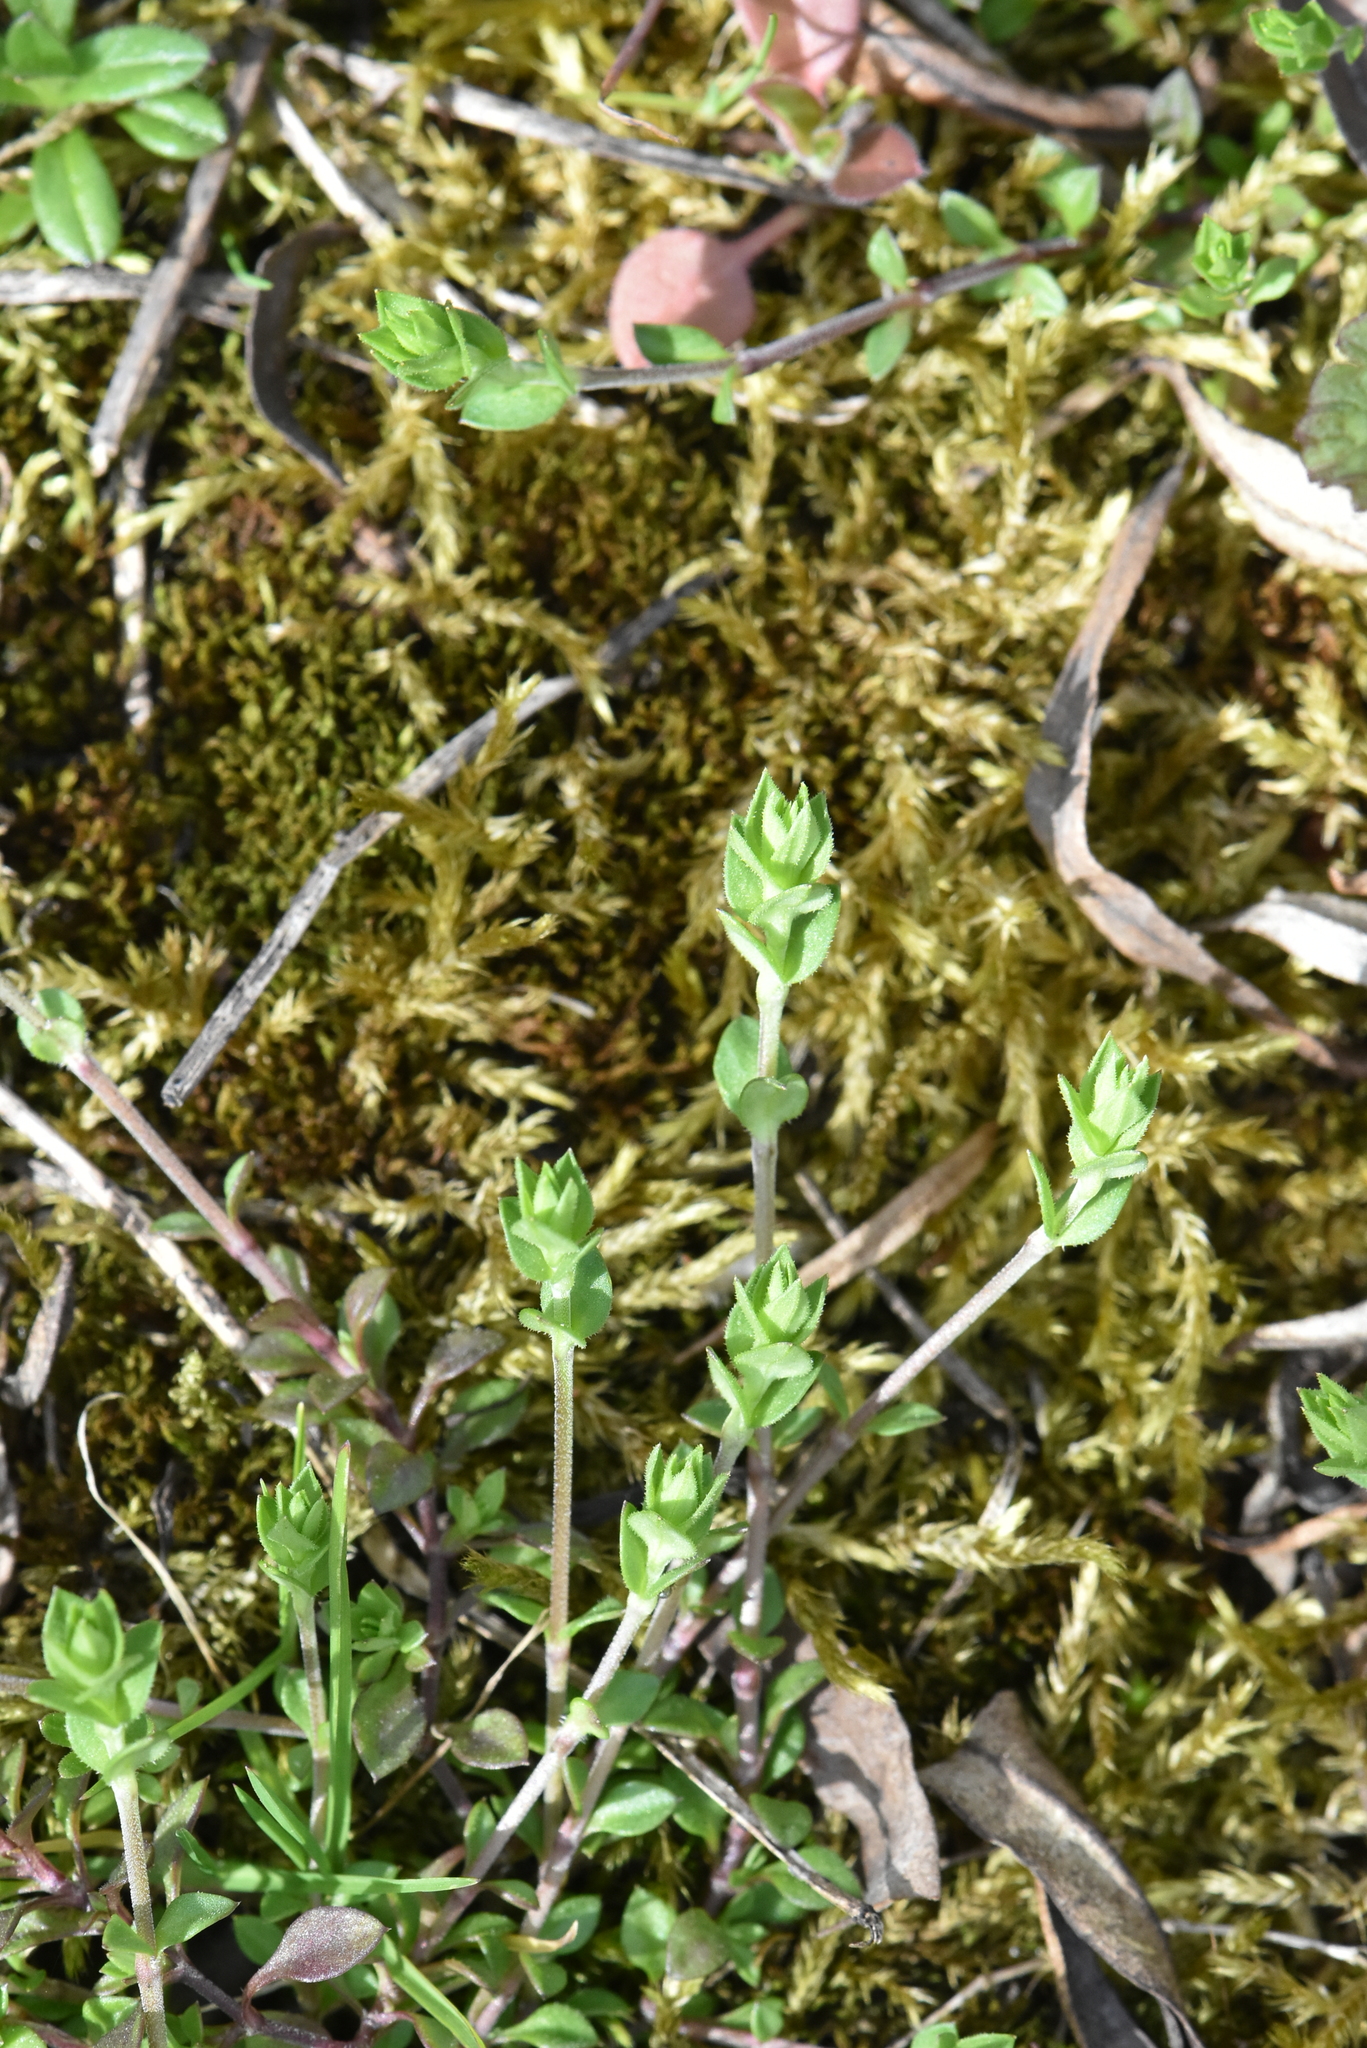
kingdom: Plantae
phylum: Tracheophyta
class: Magnoliopsida
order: Caryophyllales
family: Caryophyllaceae
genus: Arenaria
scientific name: Arenaria serpyllifolia
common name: Thyme-leaved sandwort
